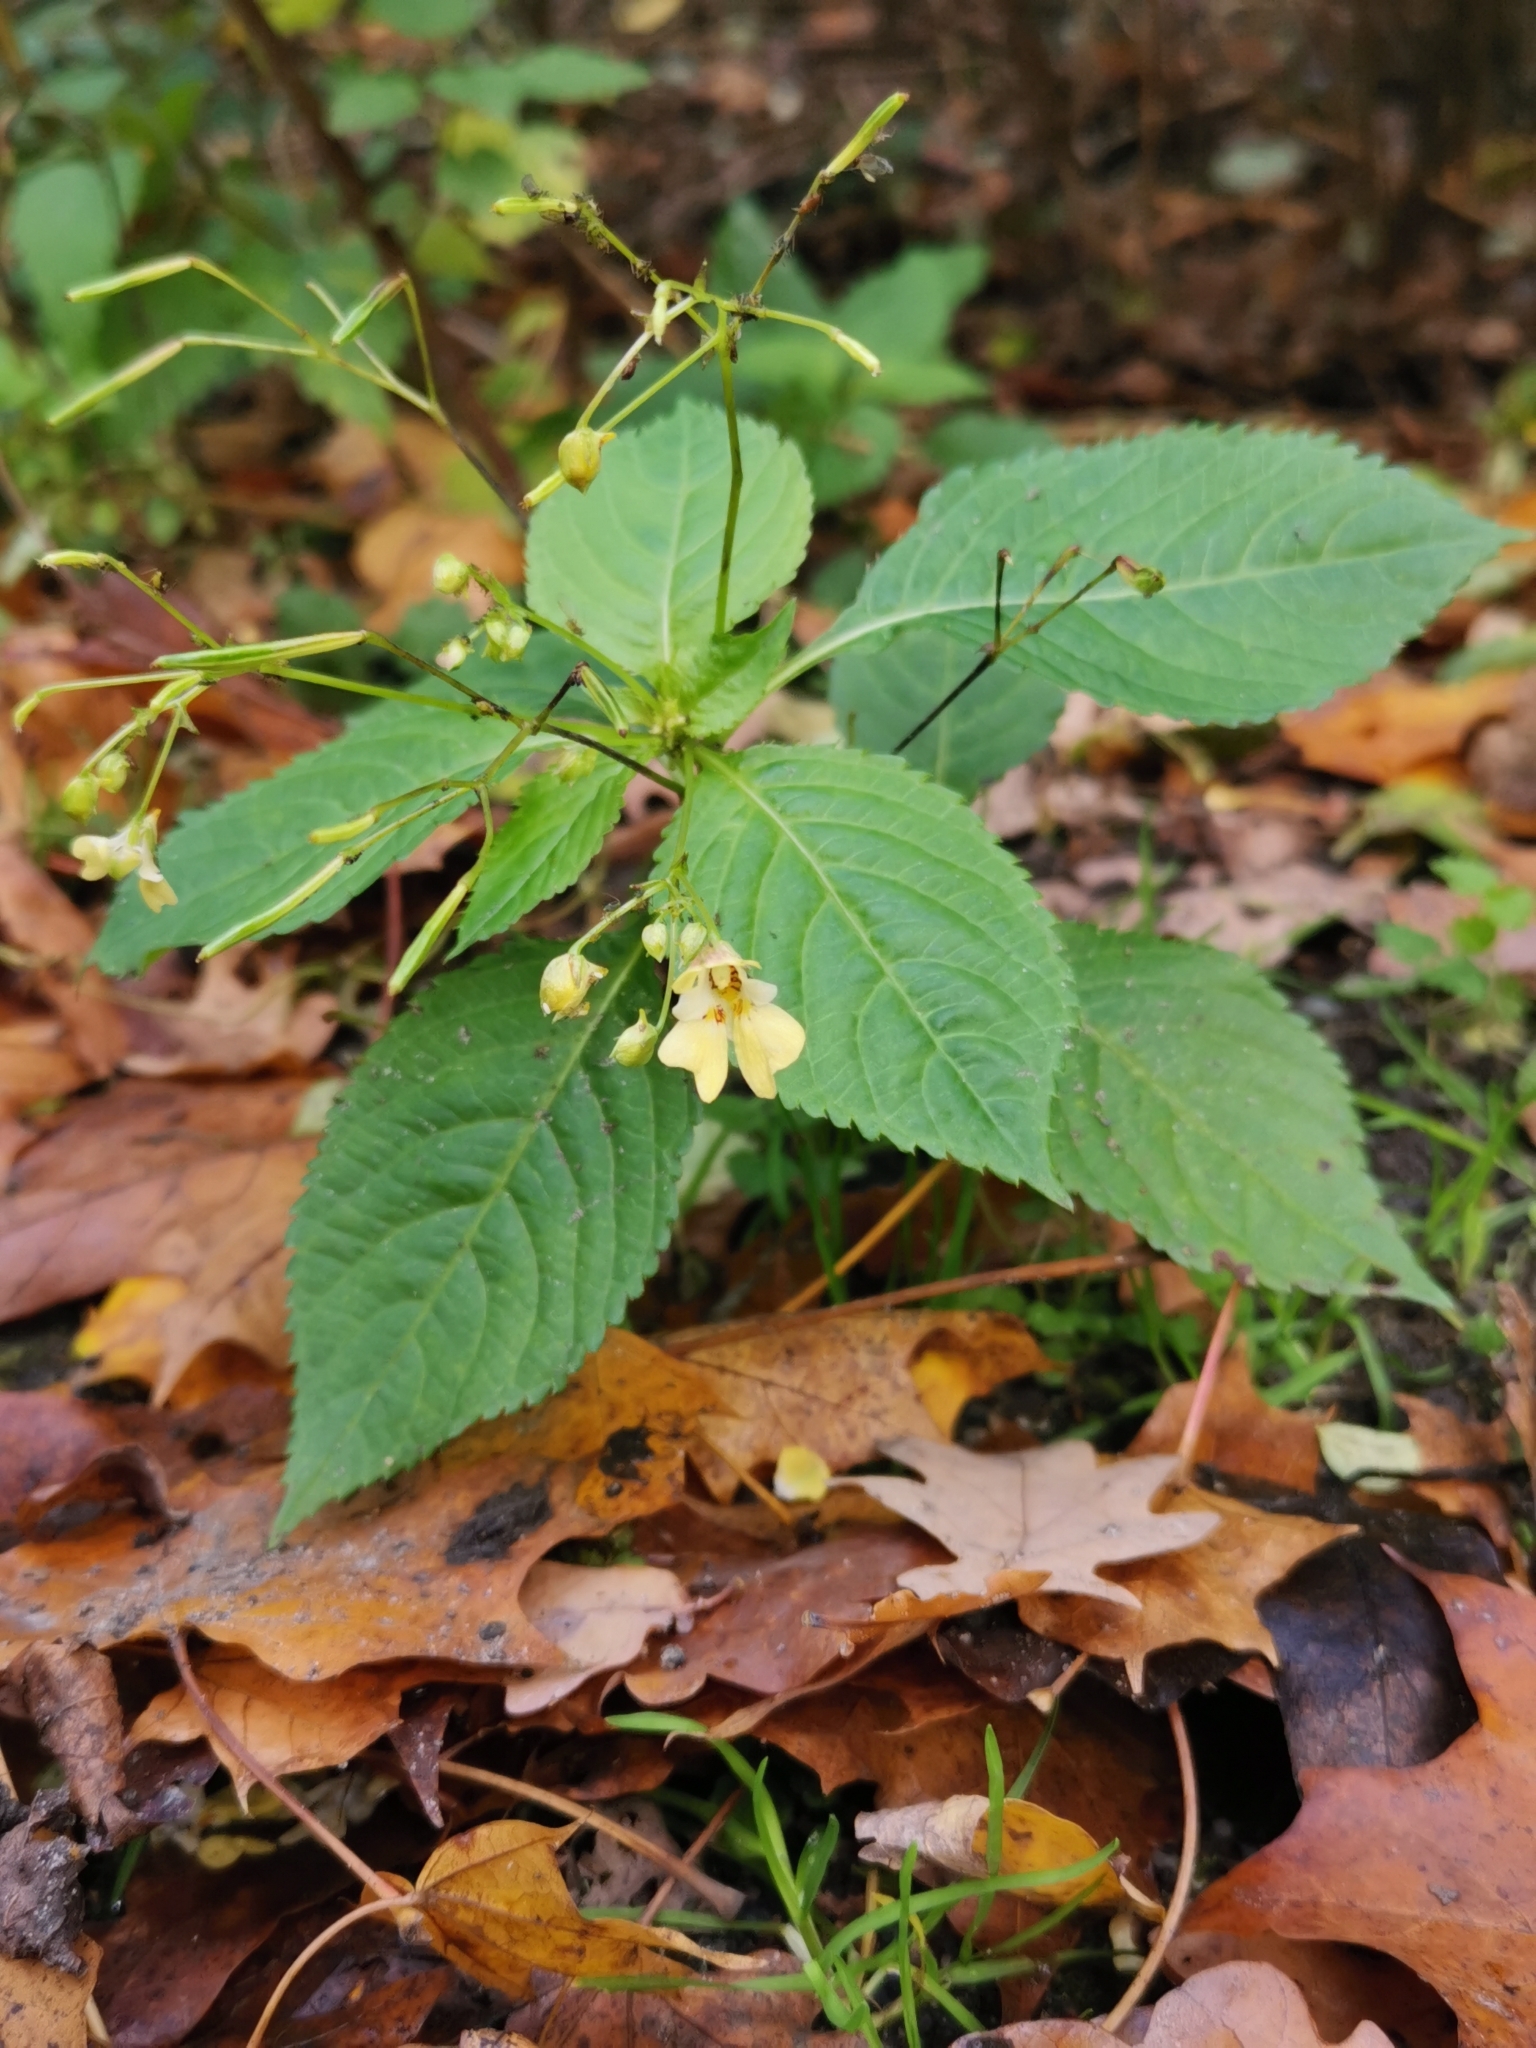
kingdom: Plantae
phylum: Tracheophyta
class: Magnoliopsida
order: Ericales
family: Balsaminaceae
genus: Impatiens
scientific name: Impatiens parviflora
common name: Small balsam
